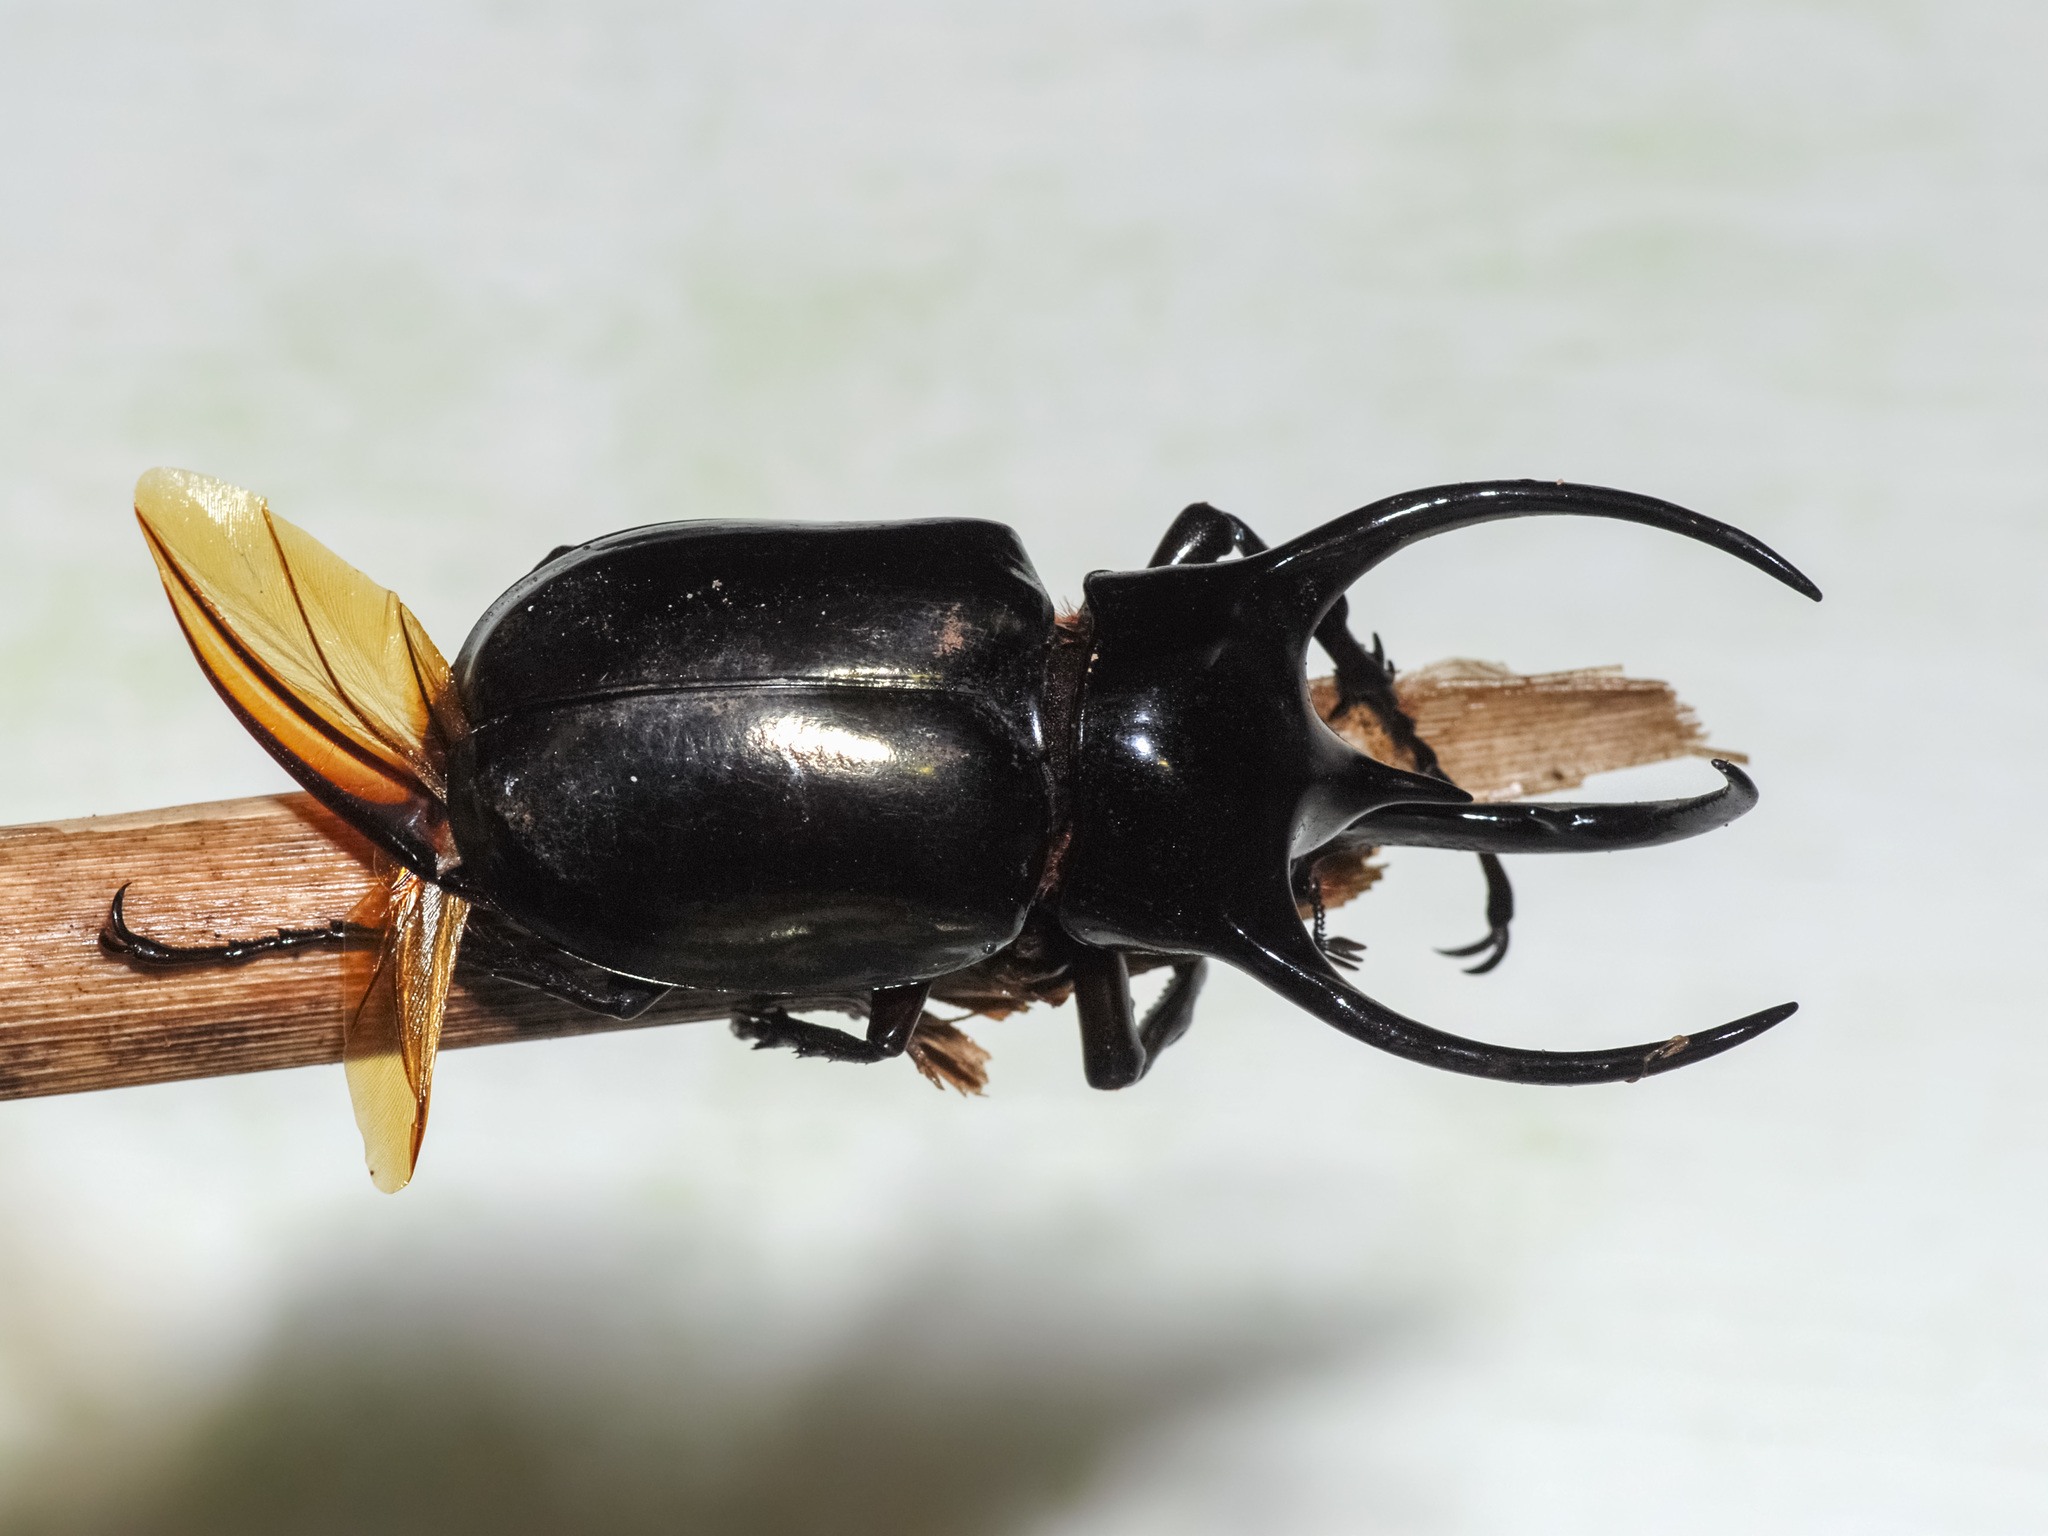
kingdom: Animalia
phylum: Arthropoda
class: Insecta
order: Coleoptera
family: Scarabaeidae
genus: Chalcosoma
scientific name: Chalcosoma chiron
